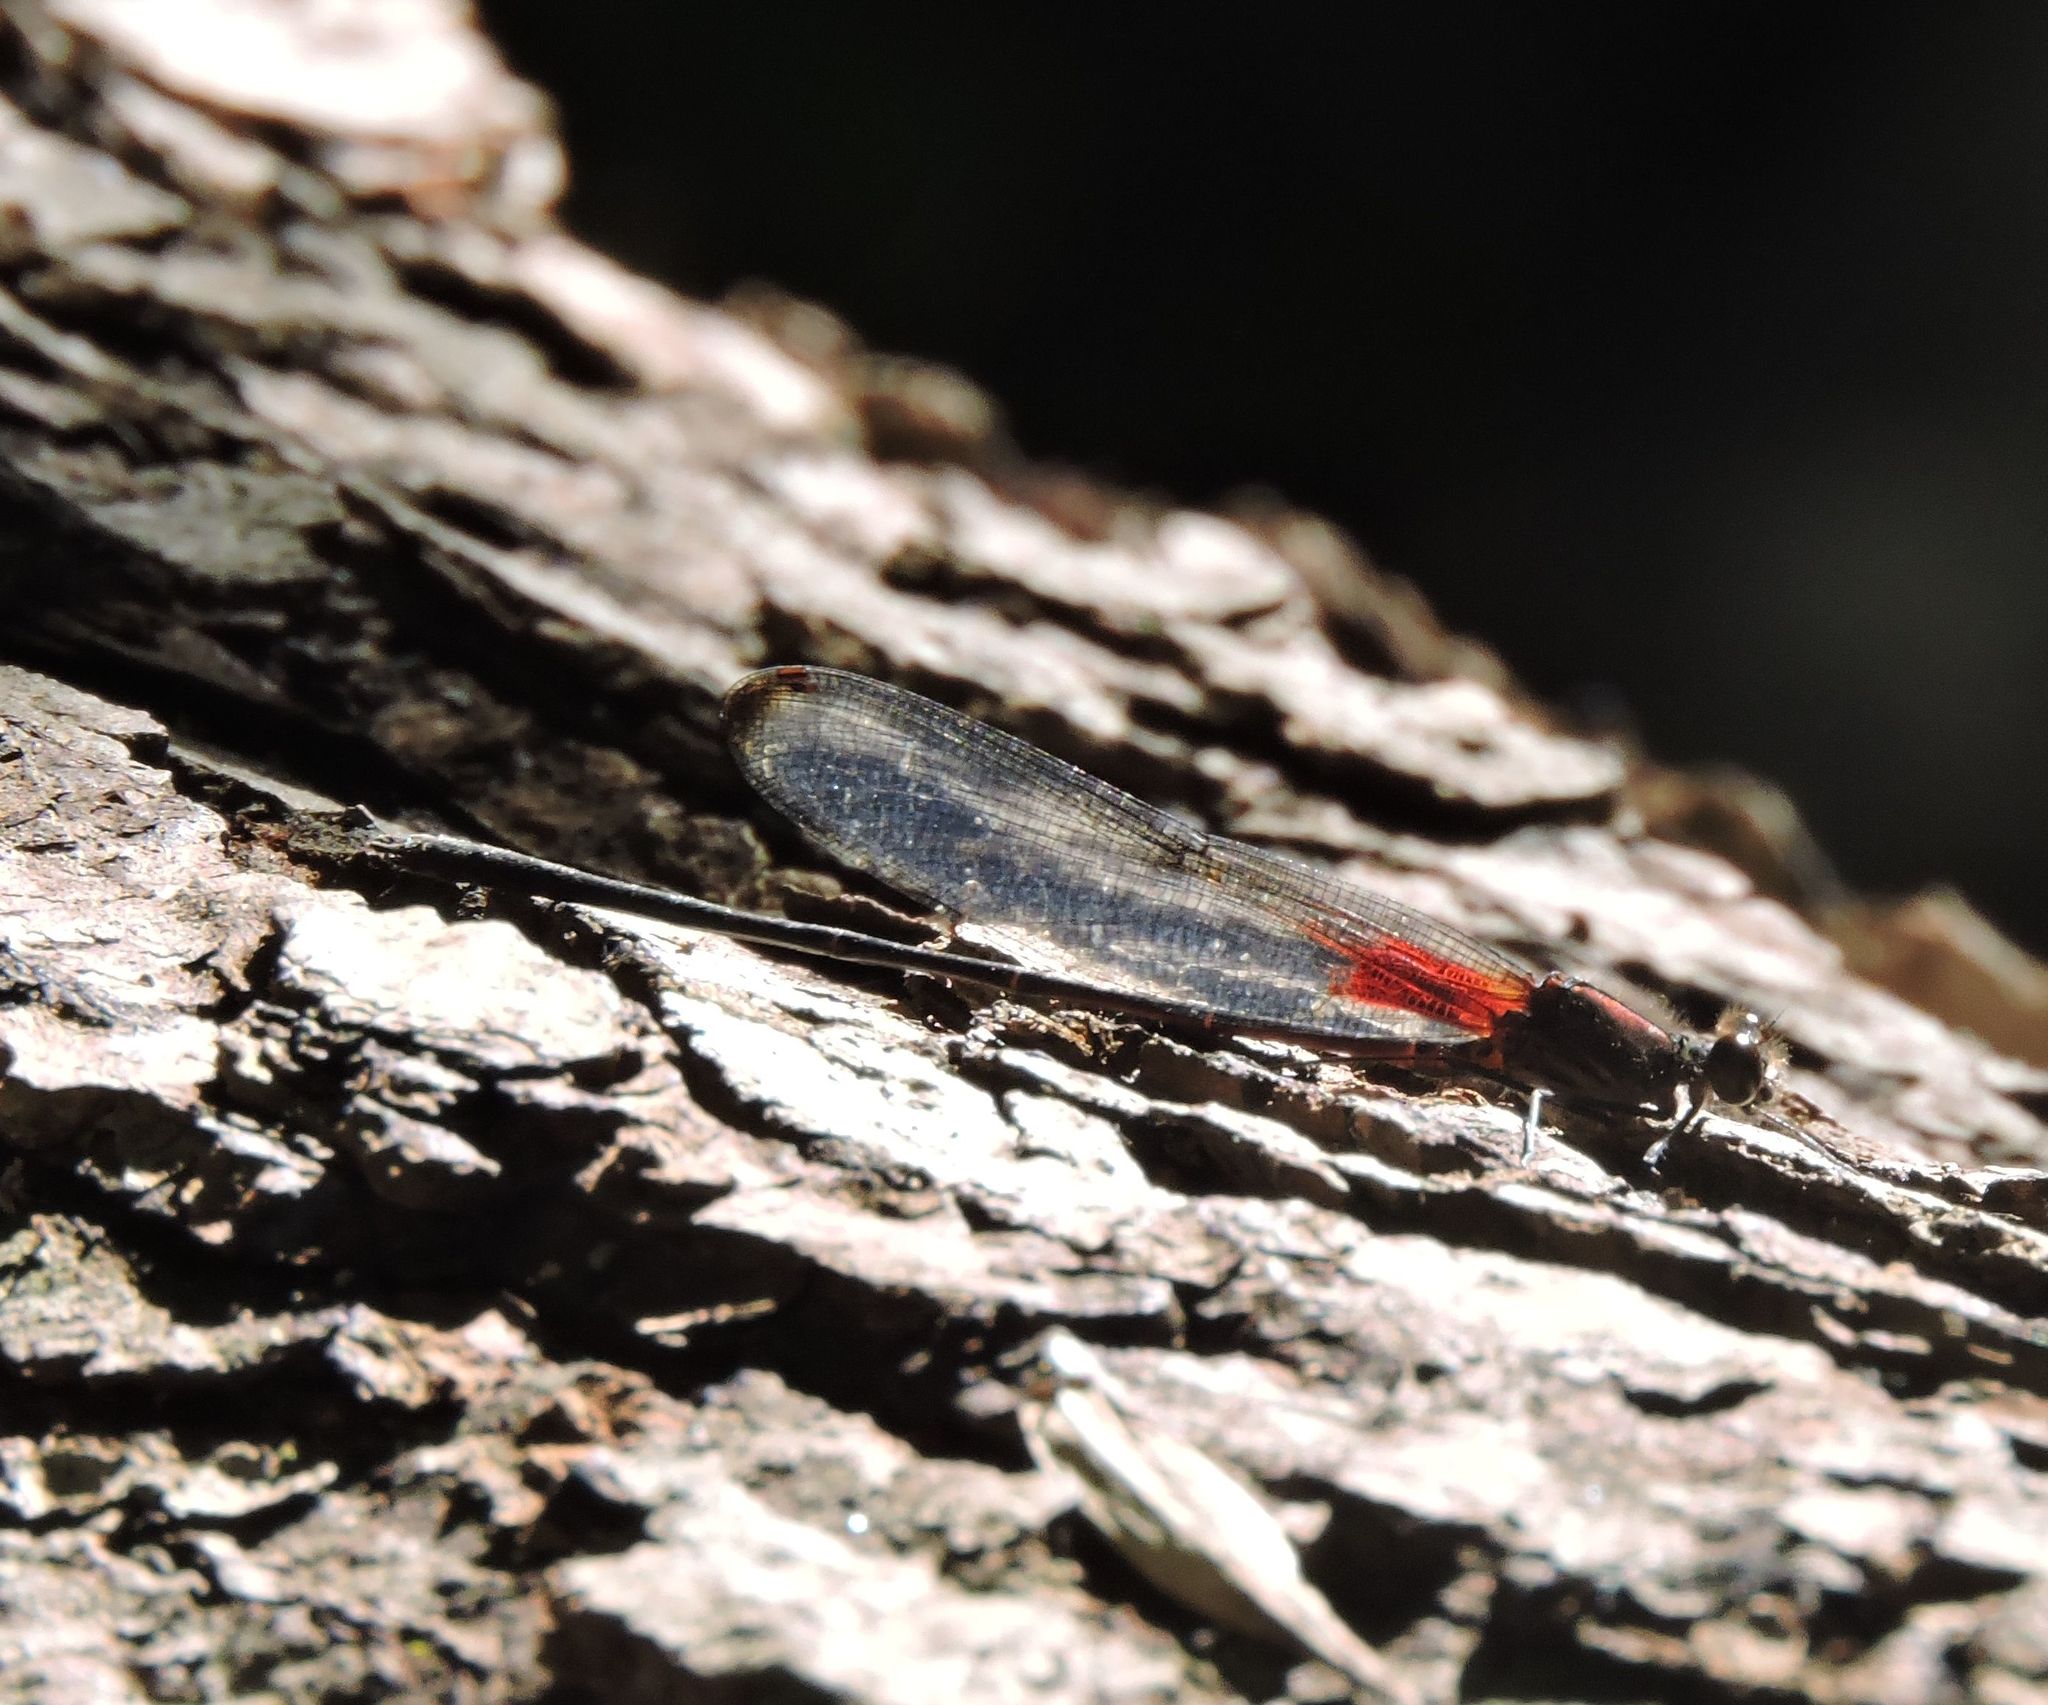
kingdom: Animalia
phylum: Arthropoda
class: Insecta
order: Odonata
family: Calopterygidae
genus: Hetaerina
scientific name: Hetaerina titia
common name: Smoky rubyspot
